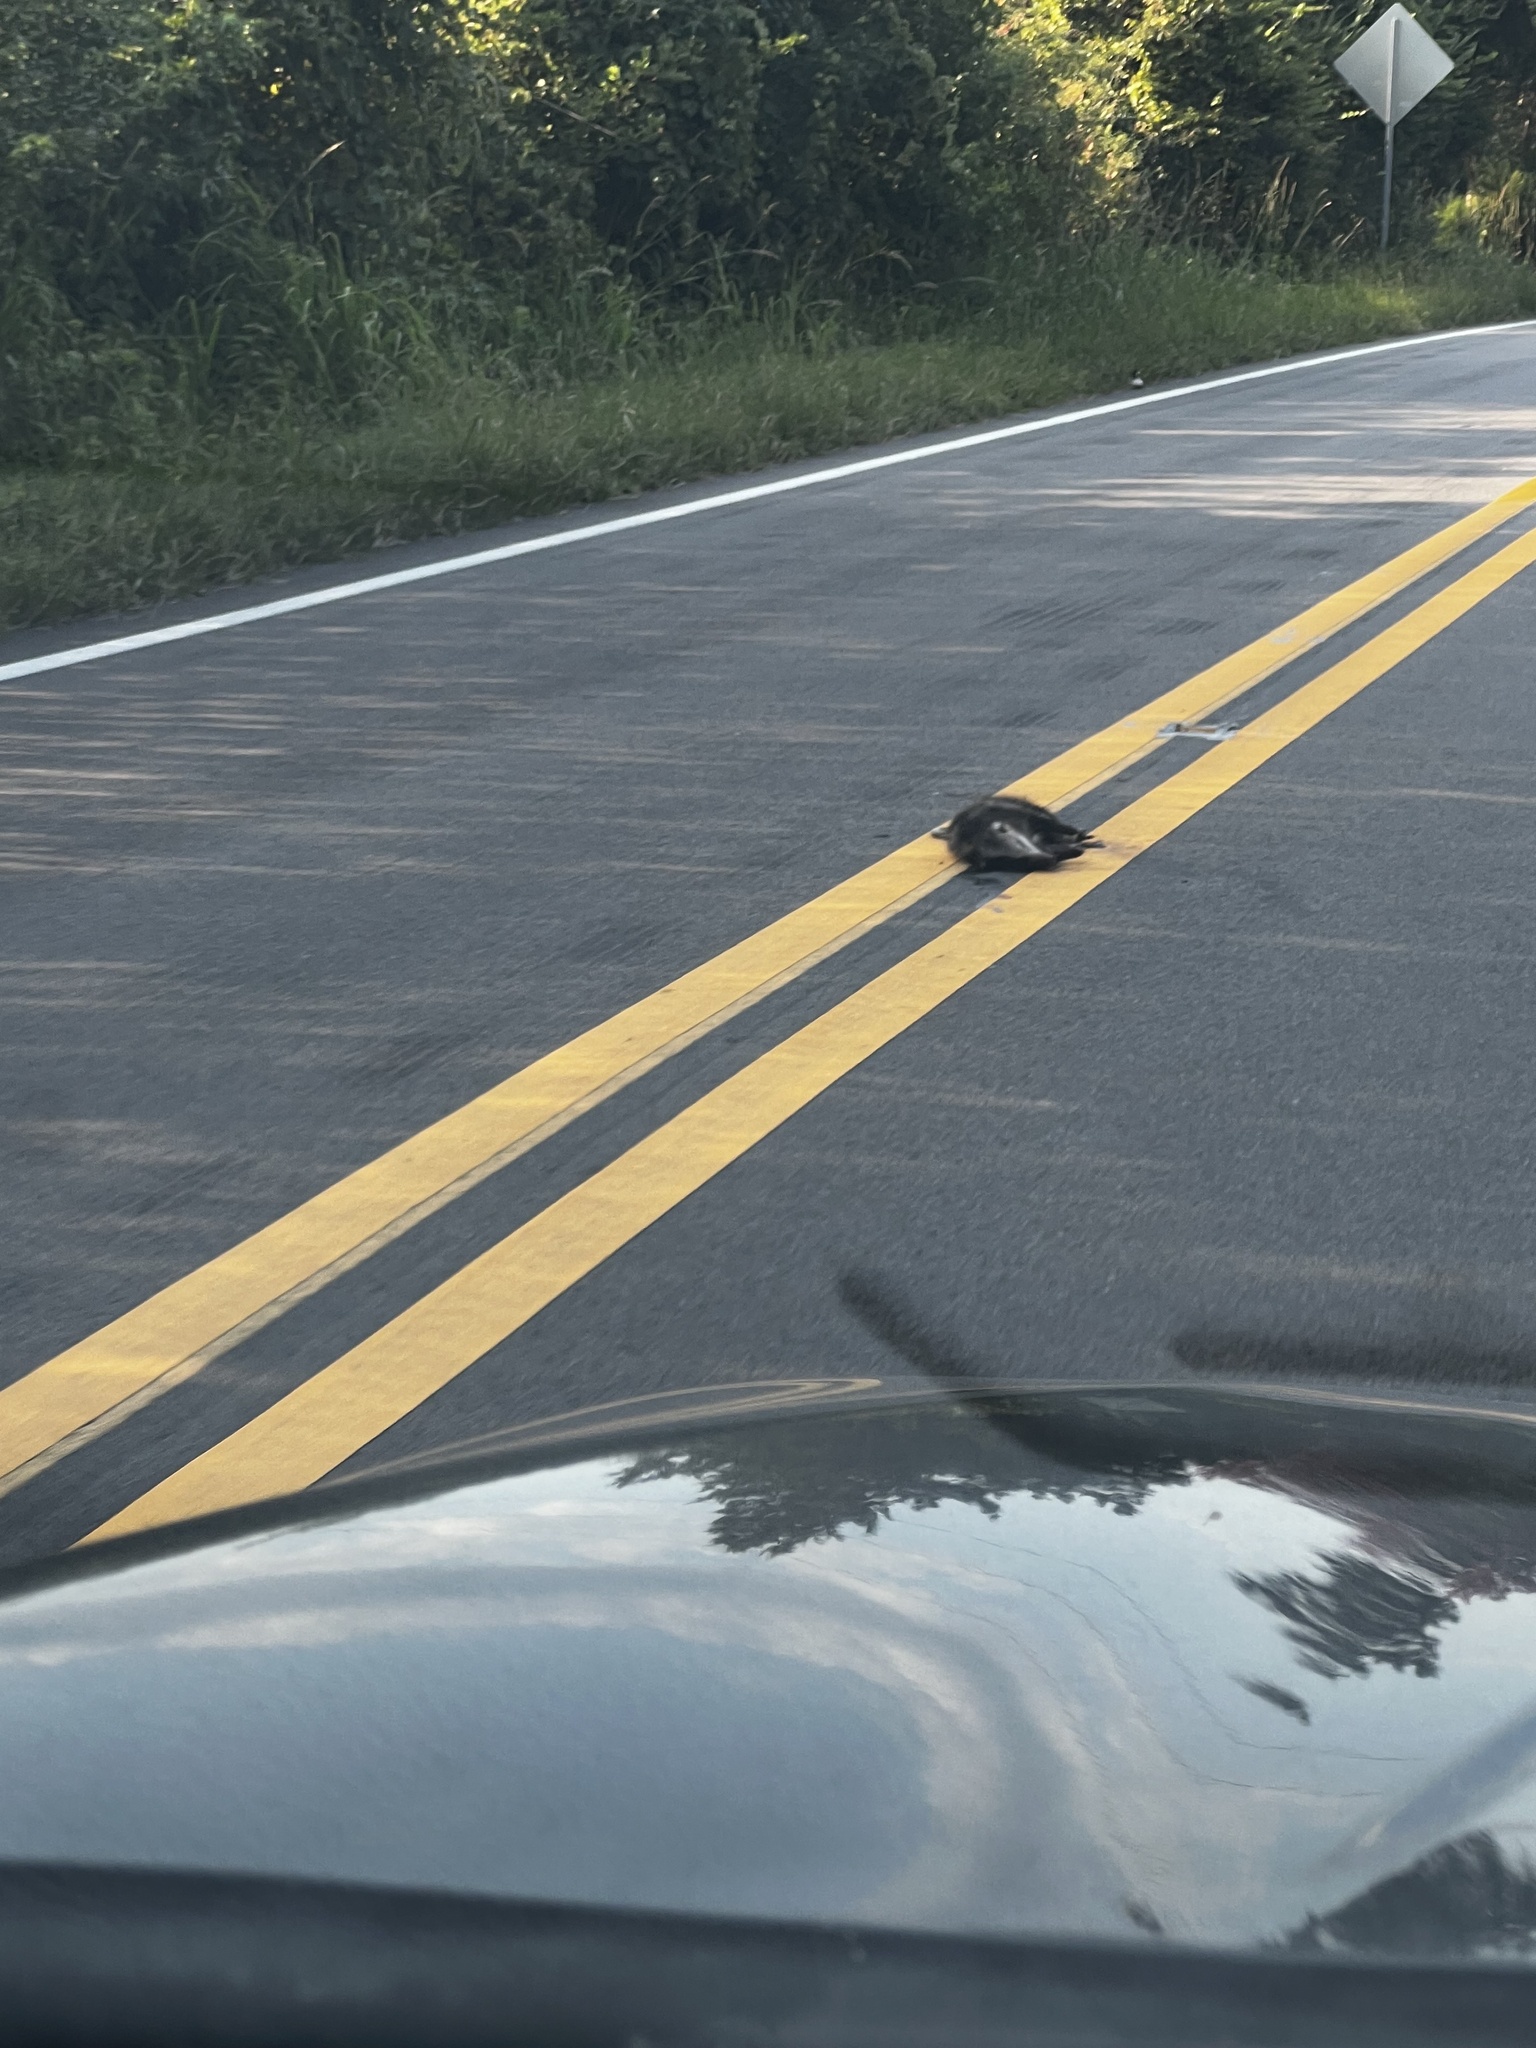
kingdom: Animalia
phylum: Chordata
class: Mammalia
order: Didelphimorphia
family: Didelphidae
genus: Didelphis
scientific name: Didelphis virginiana
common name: Virginia opossum
